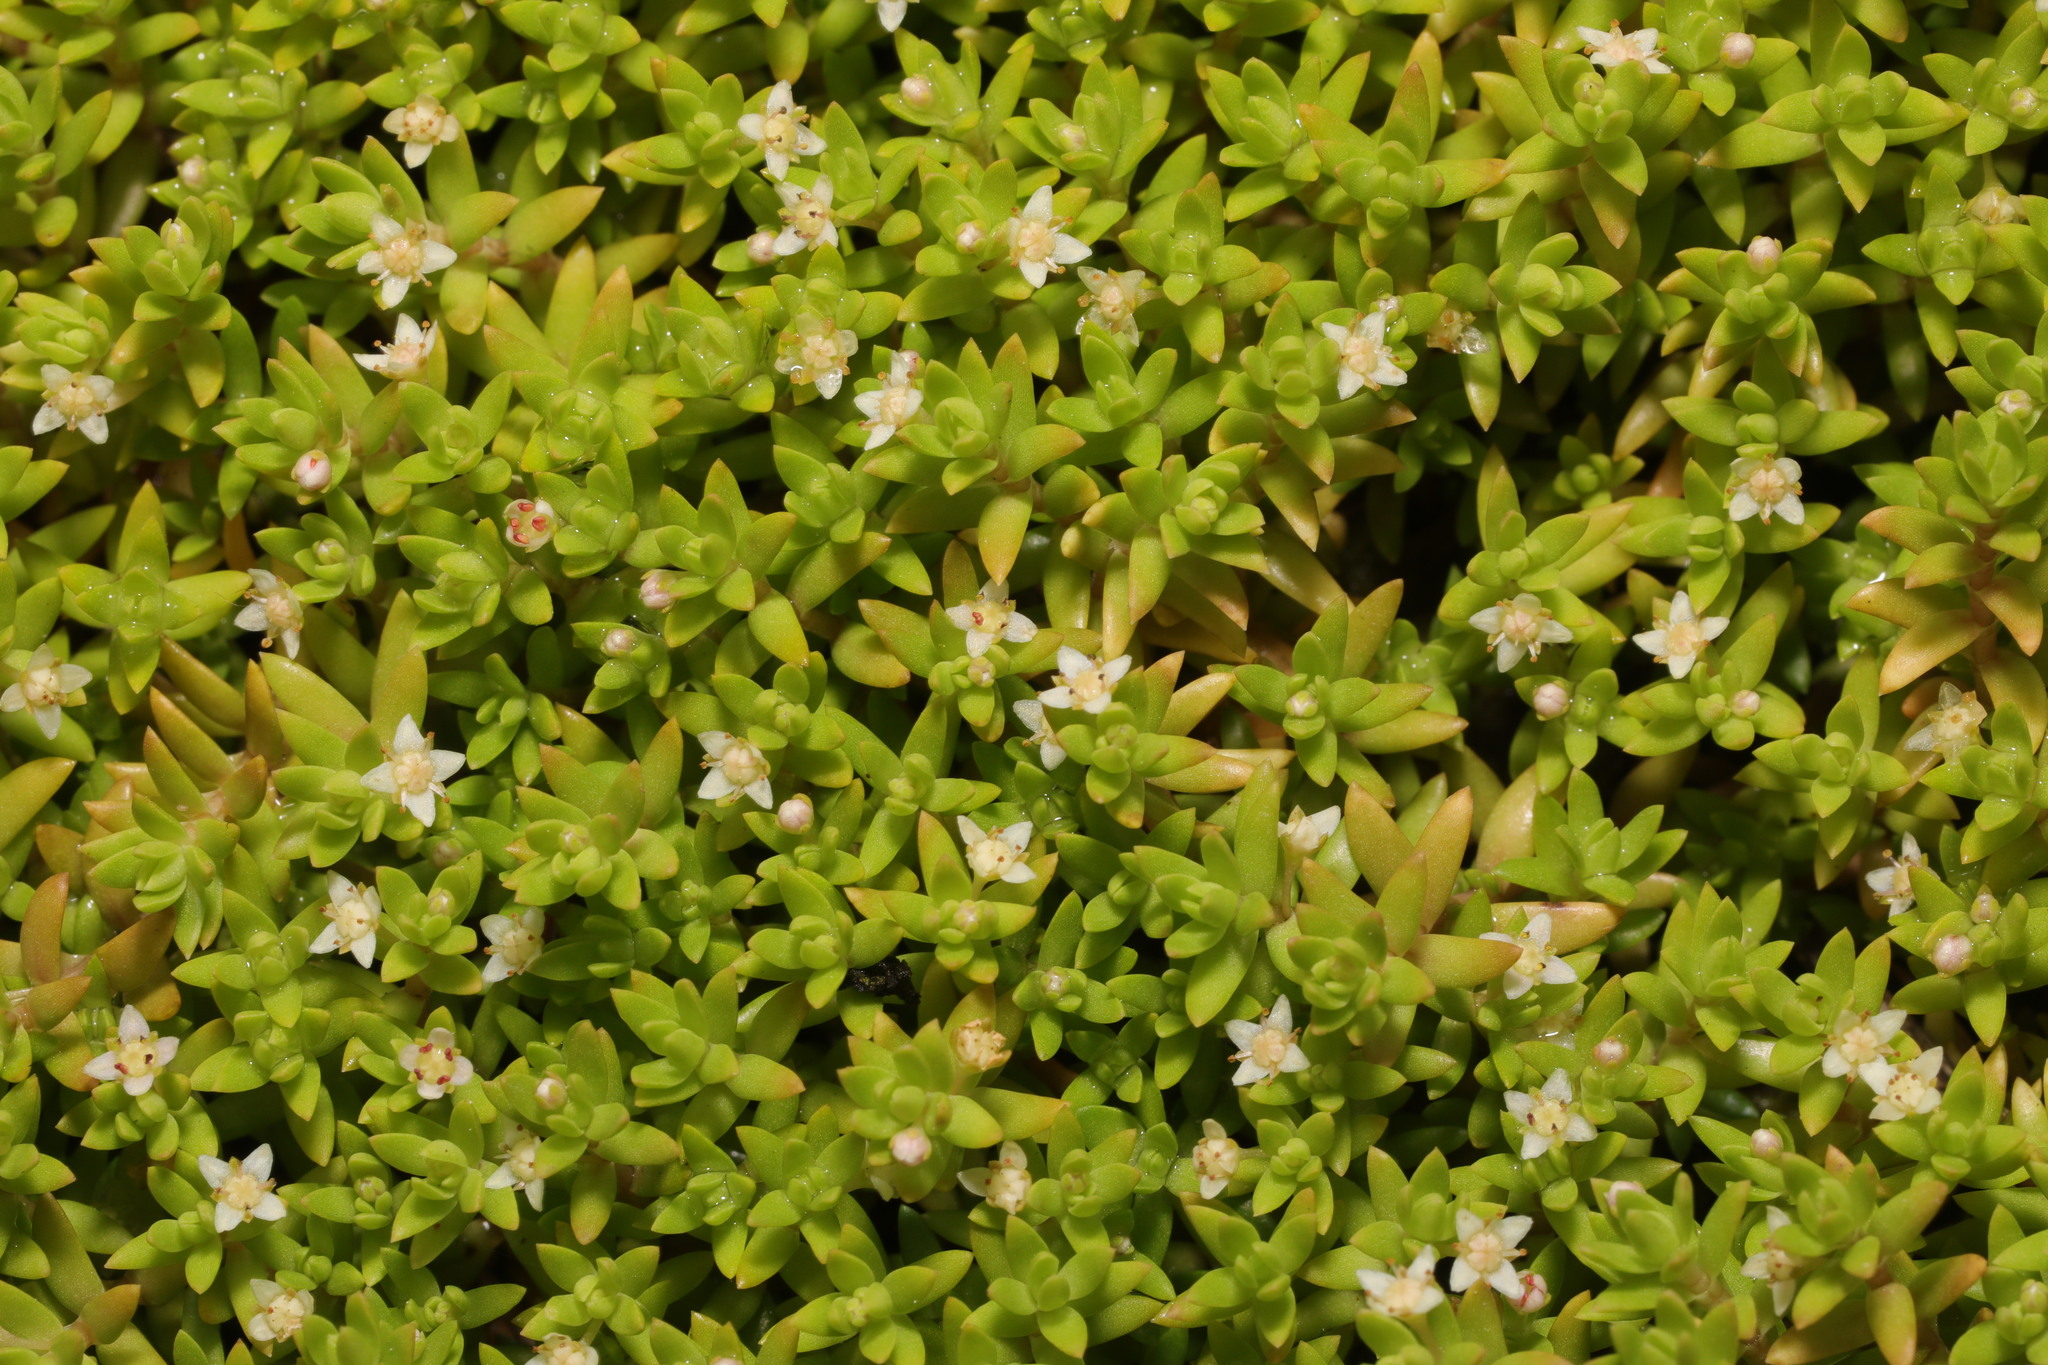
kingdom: Plantae
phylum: Tracheophyta
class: Magnoliopsida
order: Saxifragales
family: Crassulaceae
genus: Crassula
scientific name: Crassula helmsii
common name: New zealand pigmyweed
